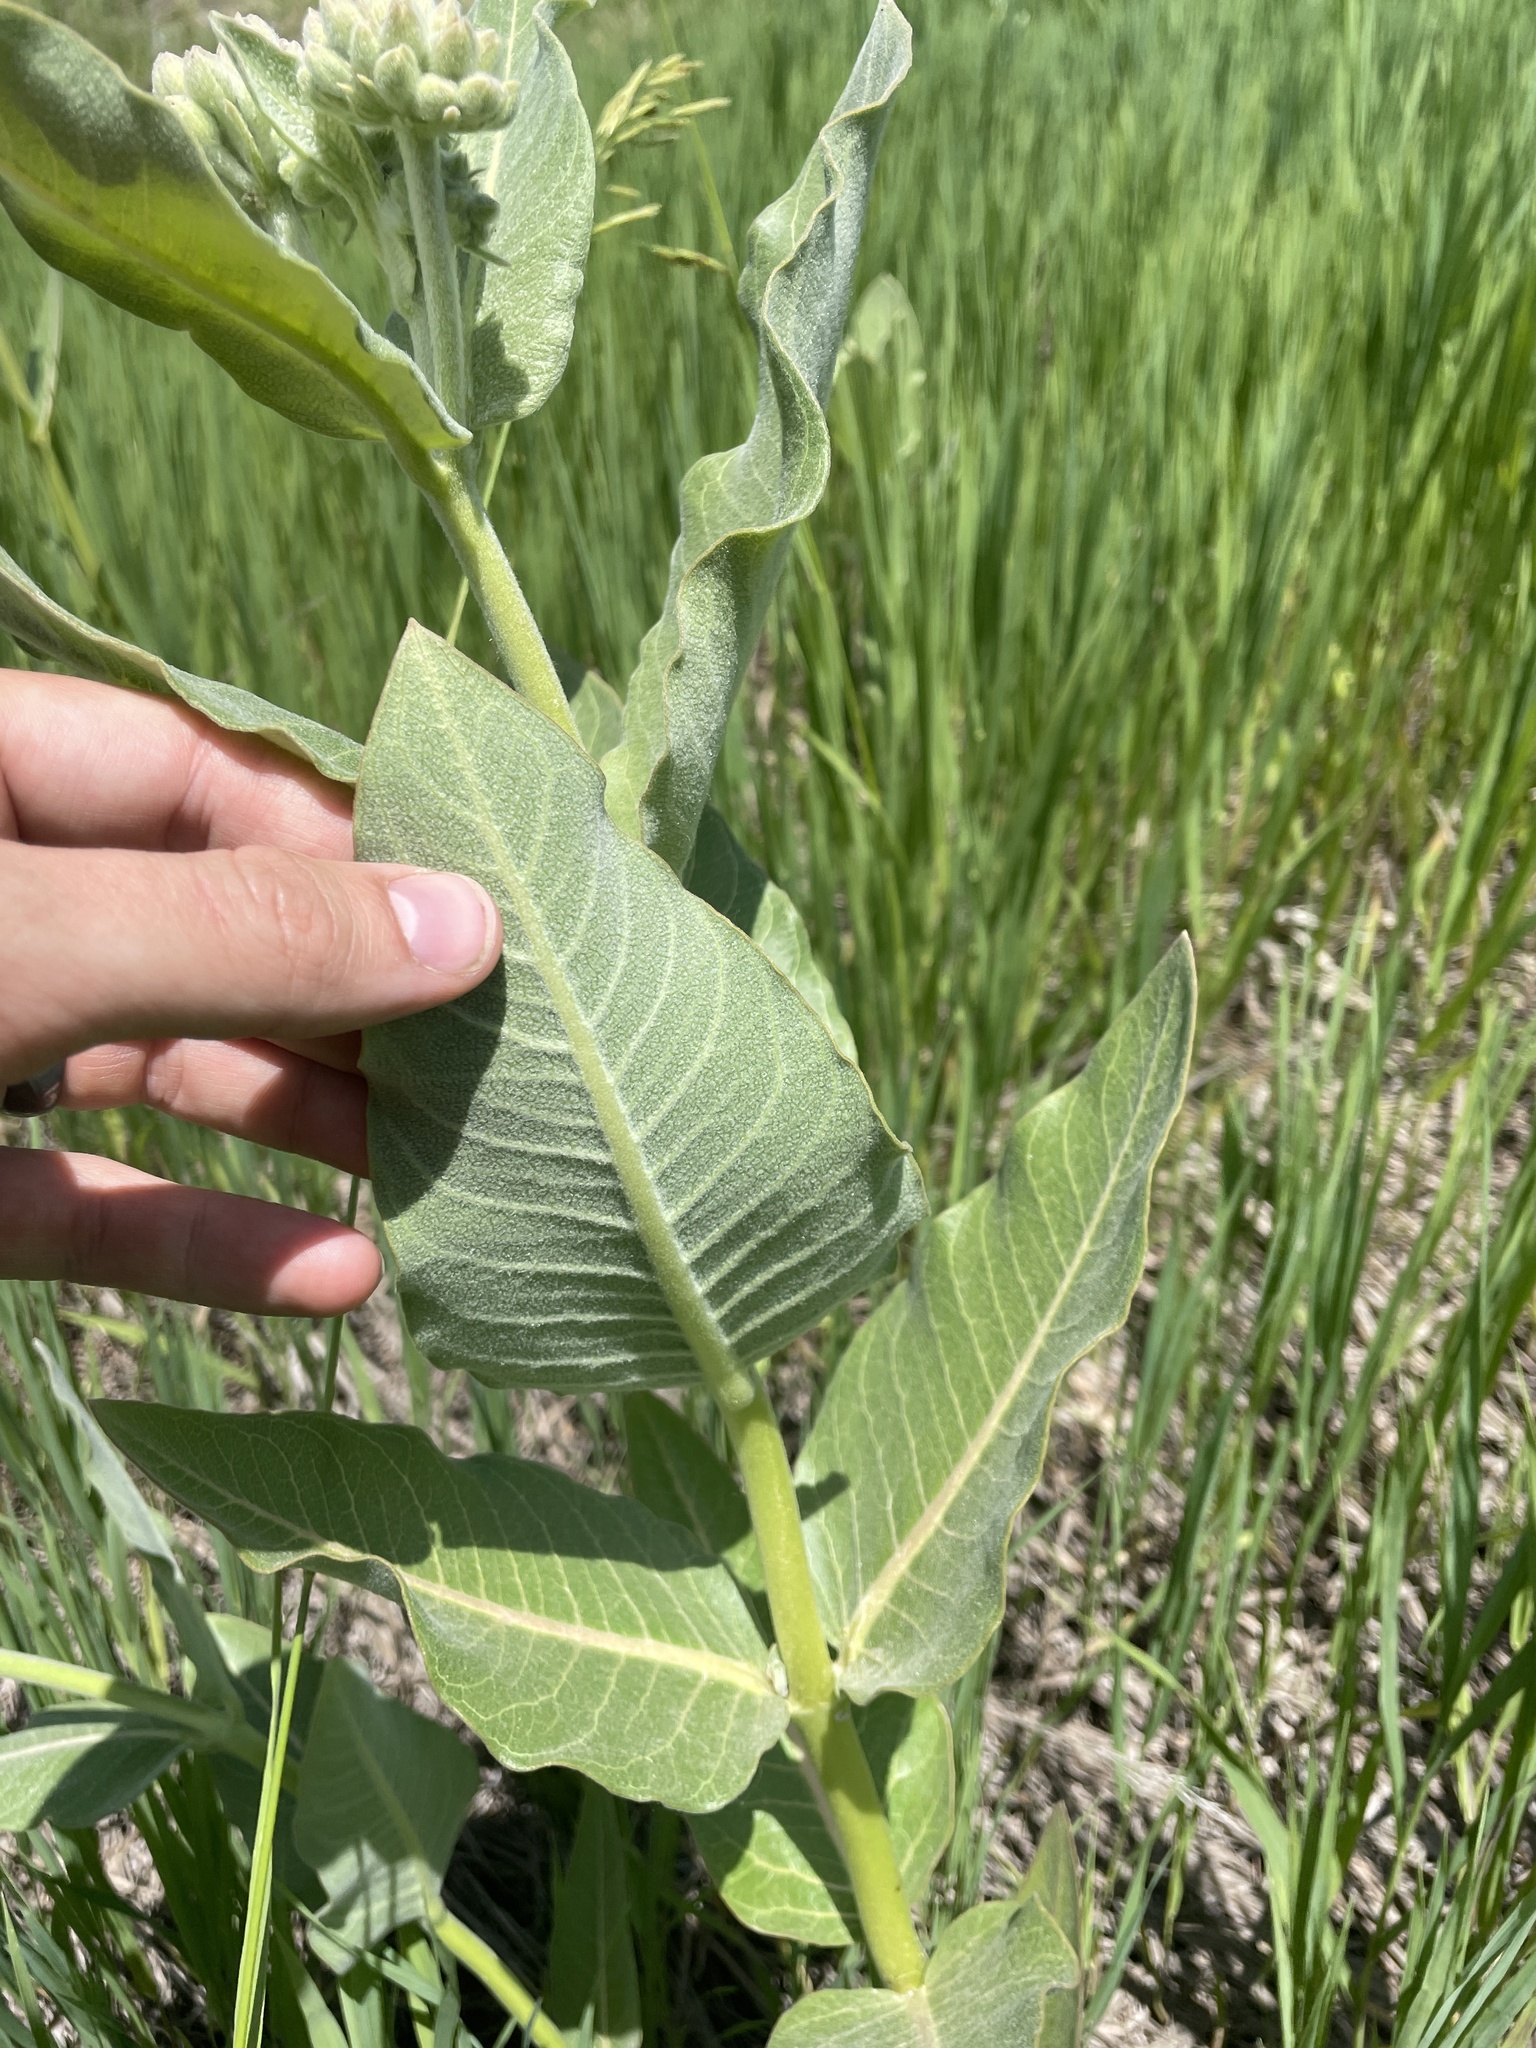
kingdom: Plantae
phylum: Tracheophyta
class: Magnoliopsida
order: Gentianales
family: Apocynaceae
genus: Asclepias
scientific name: Asclepias speciosa
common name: Showy milkweed
